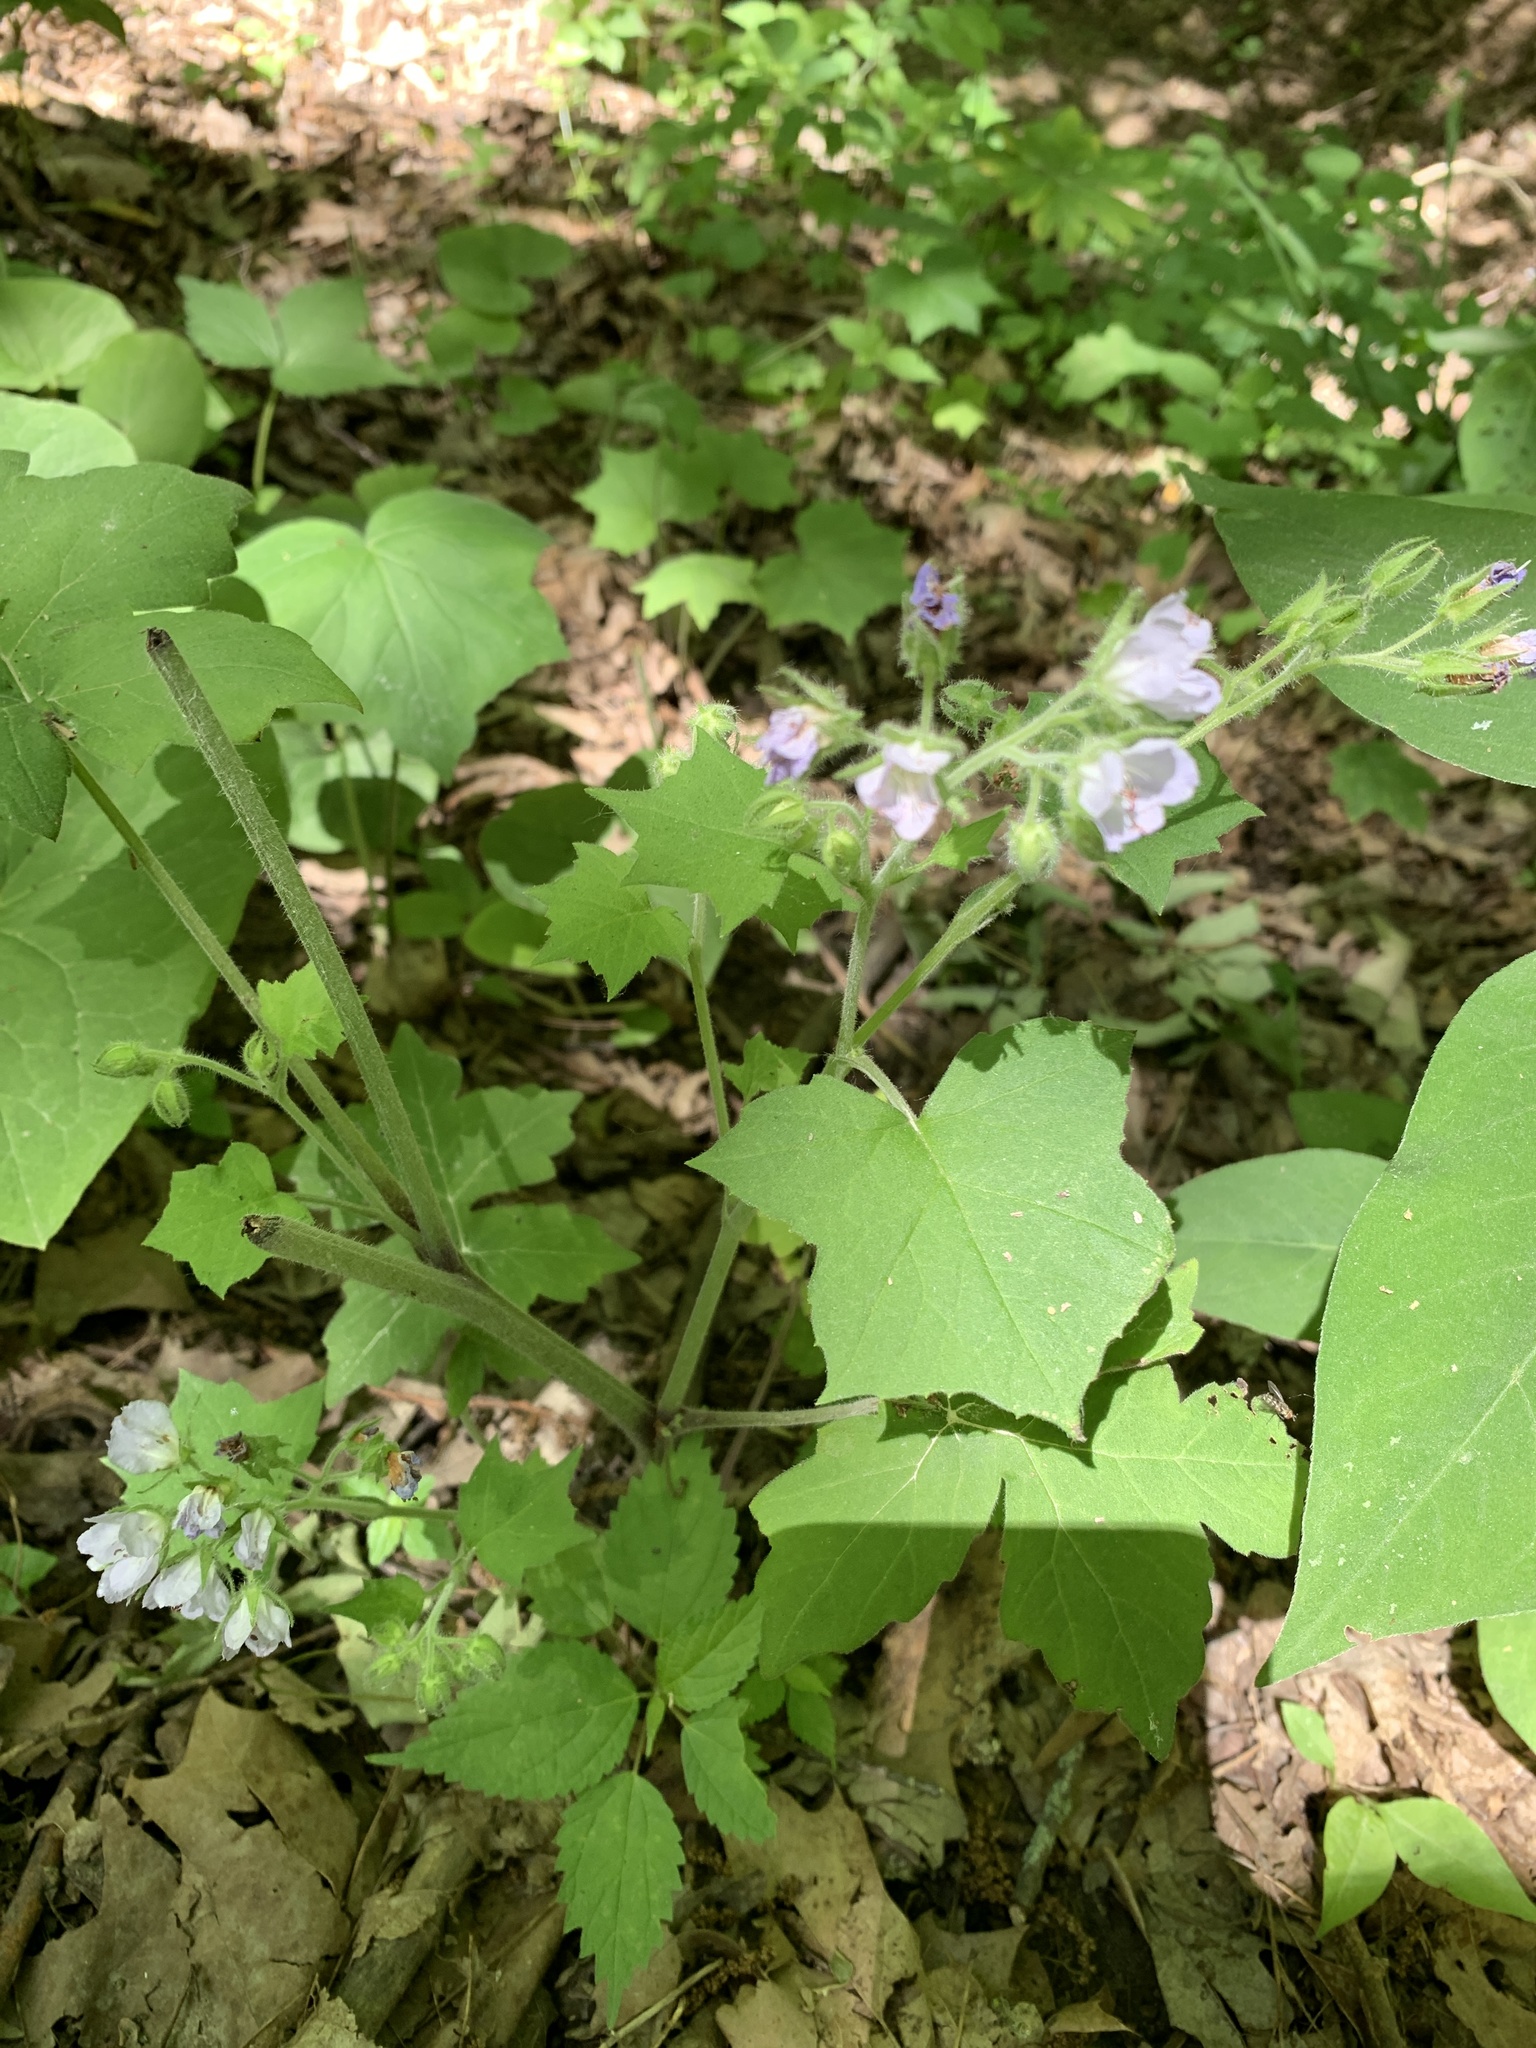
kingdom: Plantae
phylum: Tracheophyta
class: Magnoliopsida
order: Boraginales
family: Hydrophyllaceae
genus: Hydrophyllum
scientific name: Hydrophyllum appendiculatum
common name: Appendaged waterleaf
